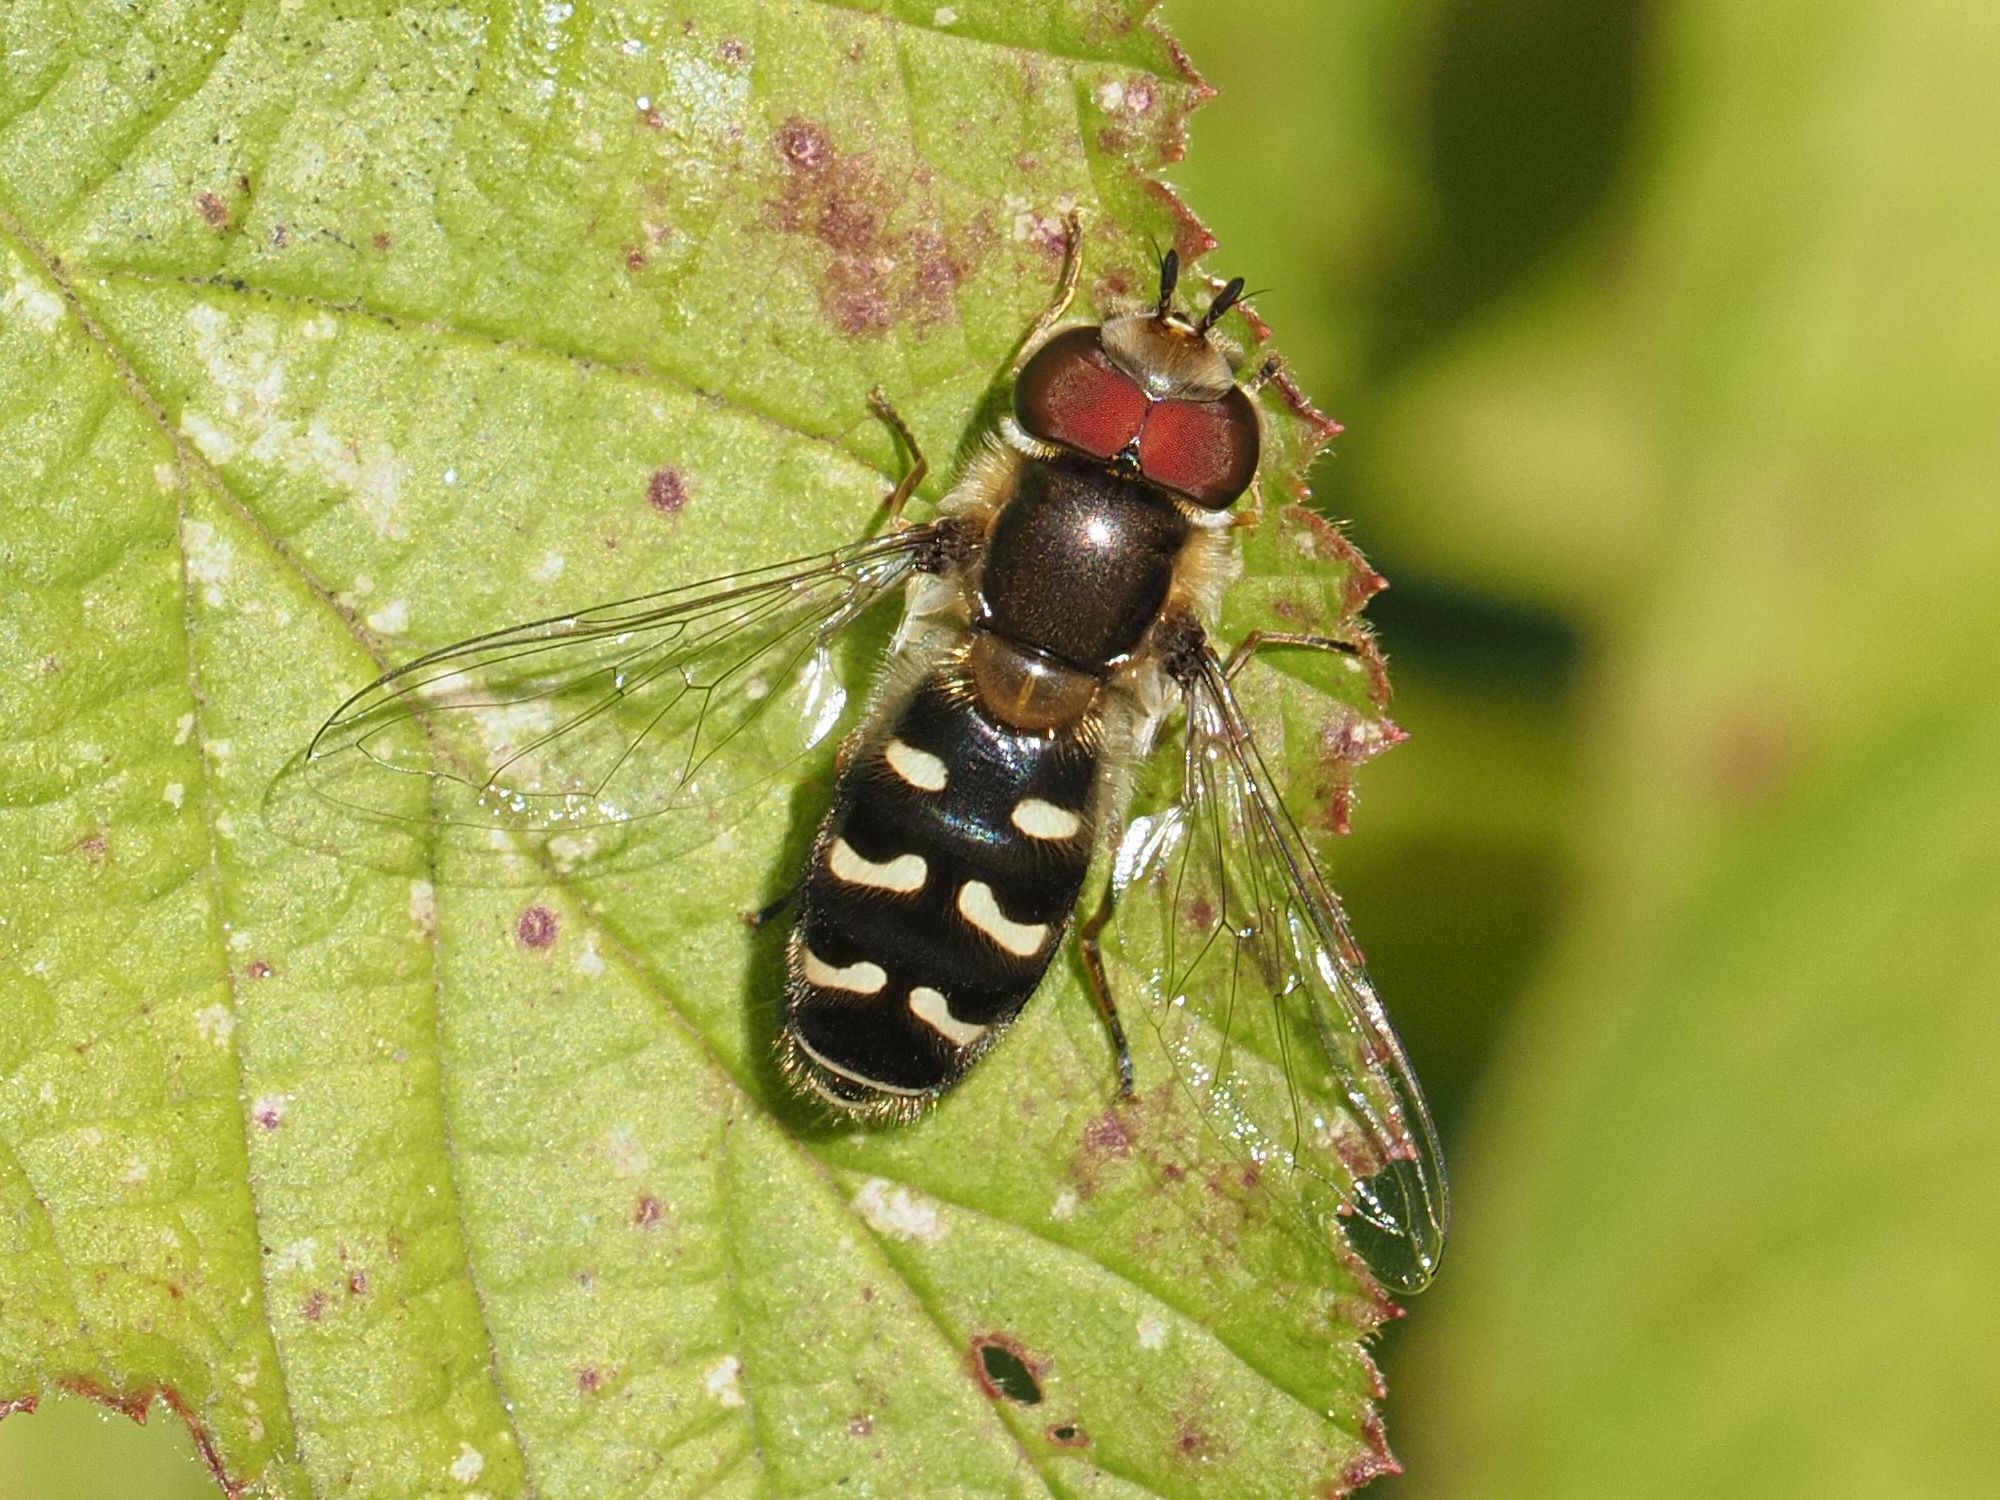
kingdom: Animalia
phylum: Arthropoda
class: Insecta
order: Diptera
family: Syrphidae
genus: Scaeva
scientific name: Scaeva pyrastri
